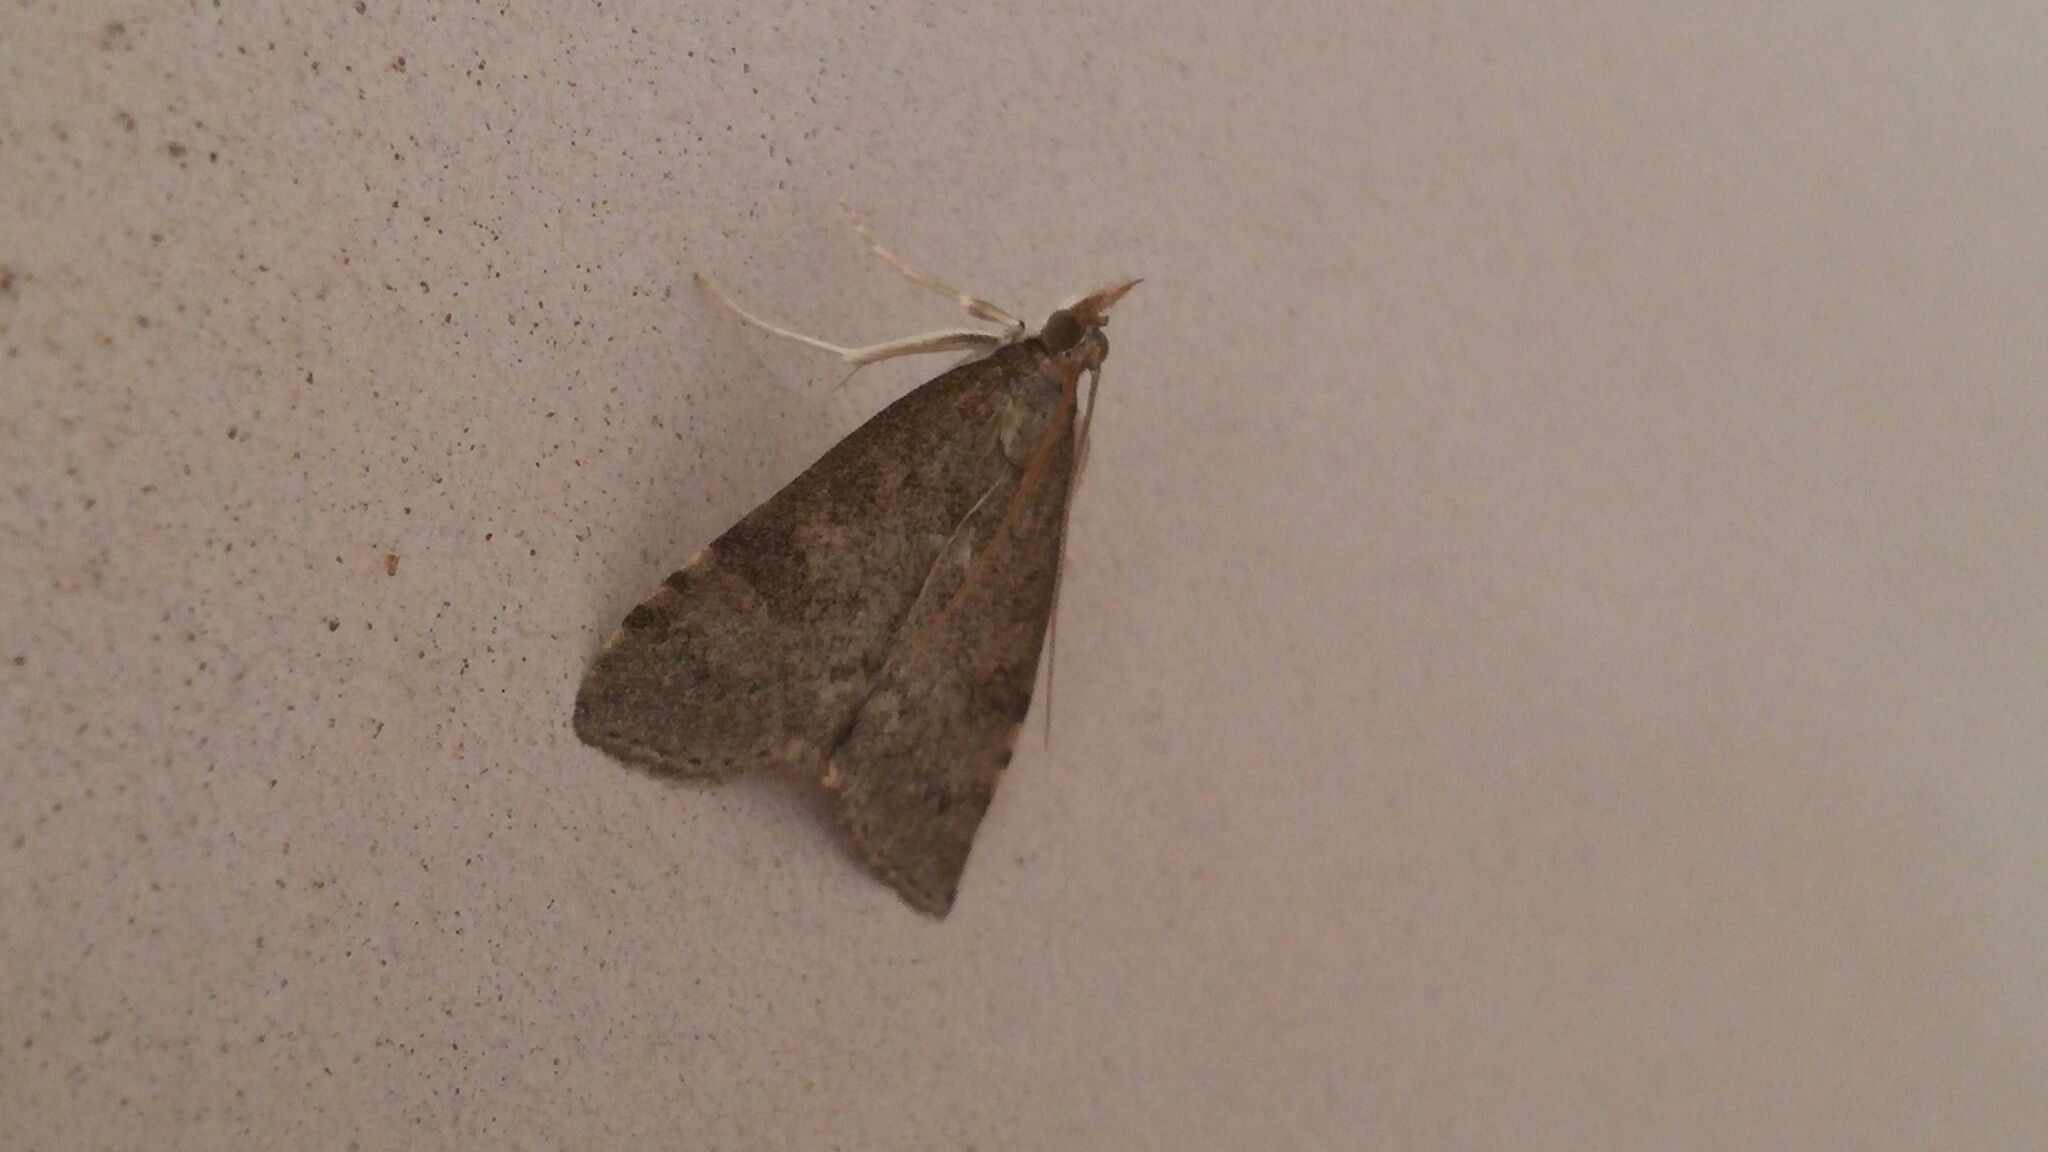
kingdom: Animalia
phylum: Arthropoda
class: Insecta
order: Lepidoptera
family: Crambidae
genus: Udea
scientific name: Udea prunalis
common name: Dusky pearl
